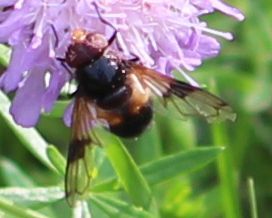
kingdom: Animalia
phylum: Arthropoda
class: Insecta
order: Diptera
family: Syrphidae
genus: Volucella
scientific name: Volucella pellucens
